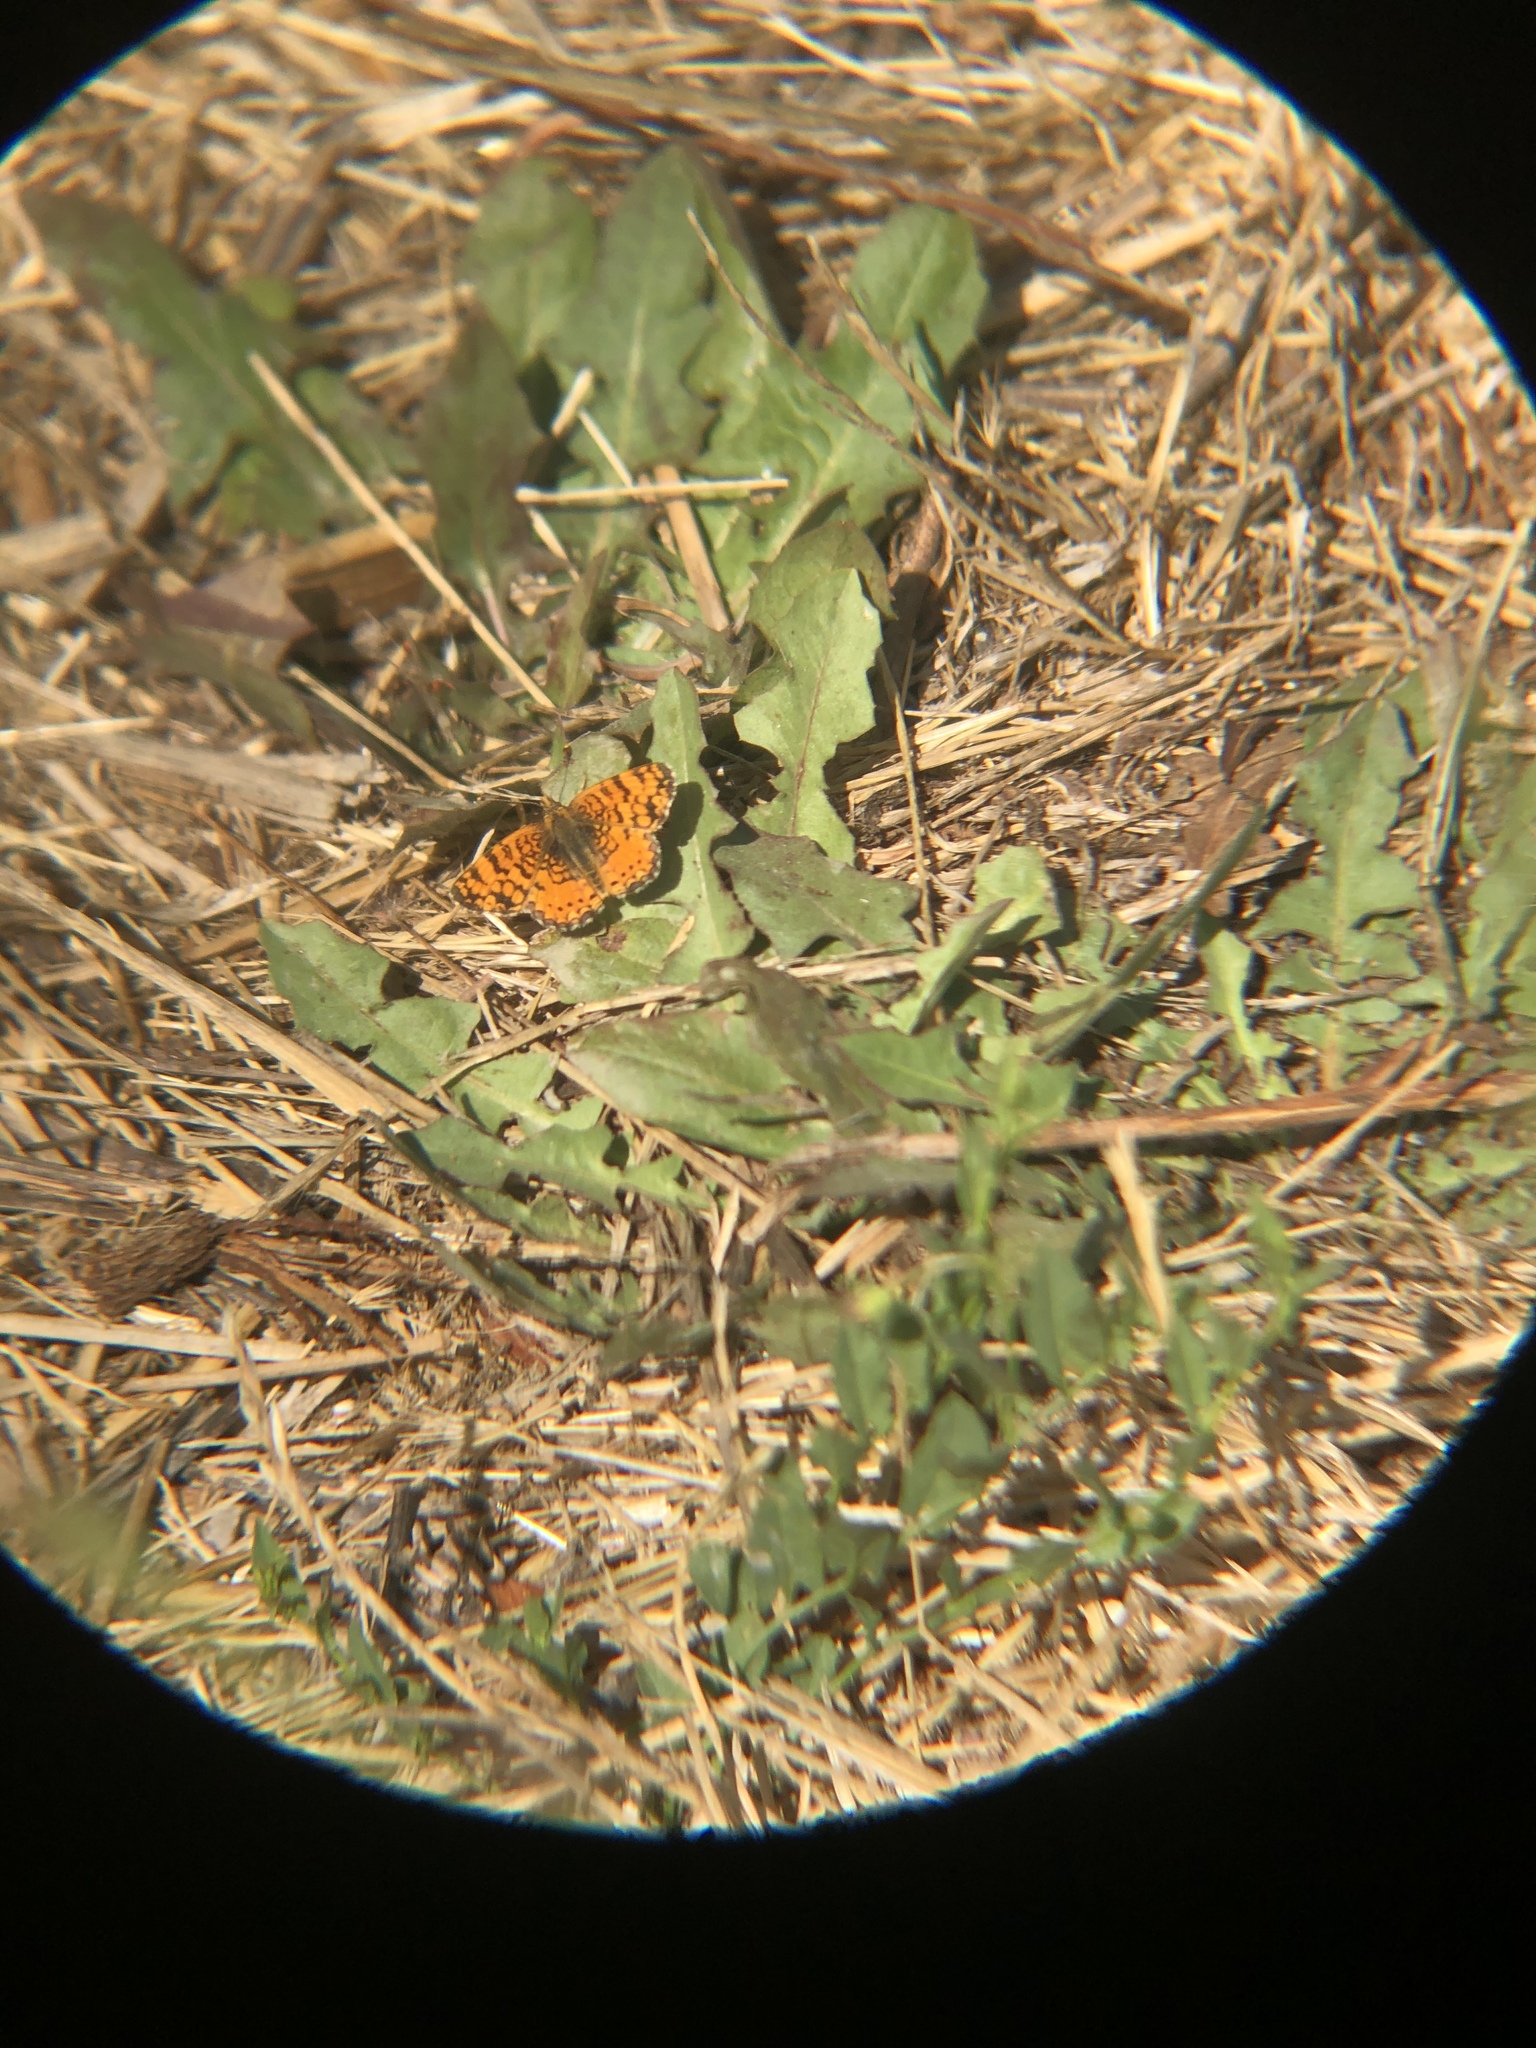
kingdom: Animalia
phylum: Arthropoda
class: Insecta
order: Lepidoptera
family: Nymphalidae
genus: Eresia
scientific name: Eresia aveyrona
